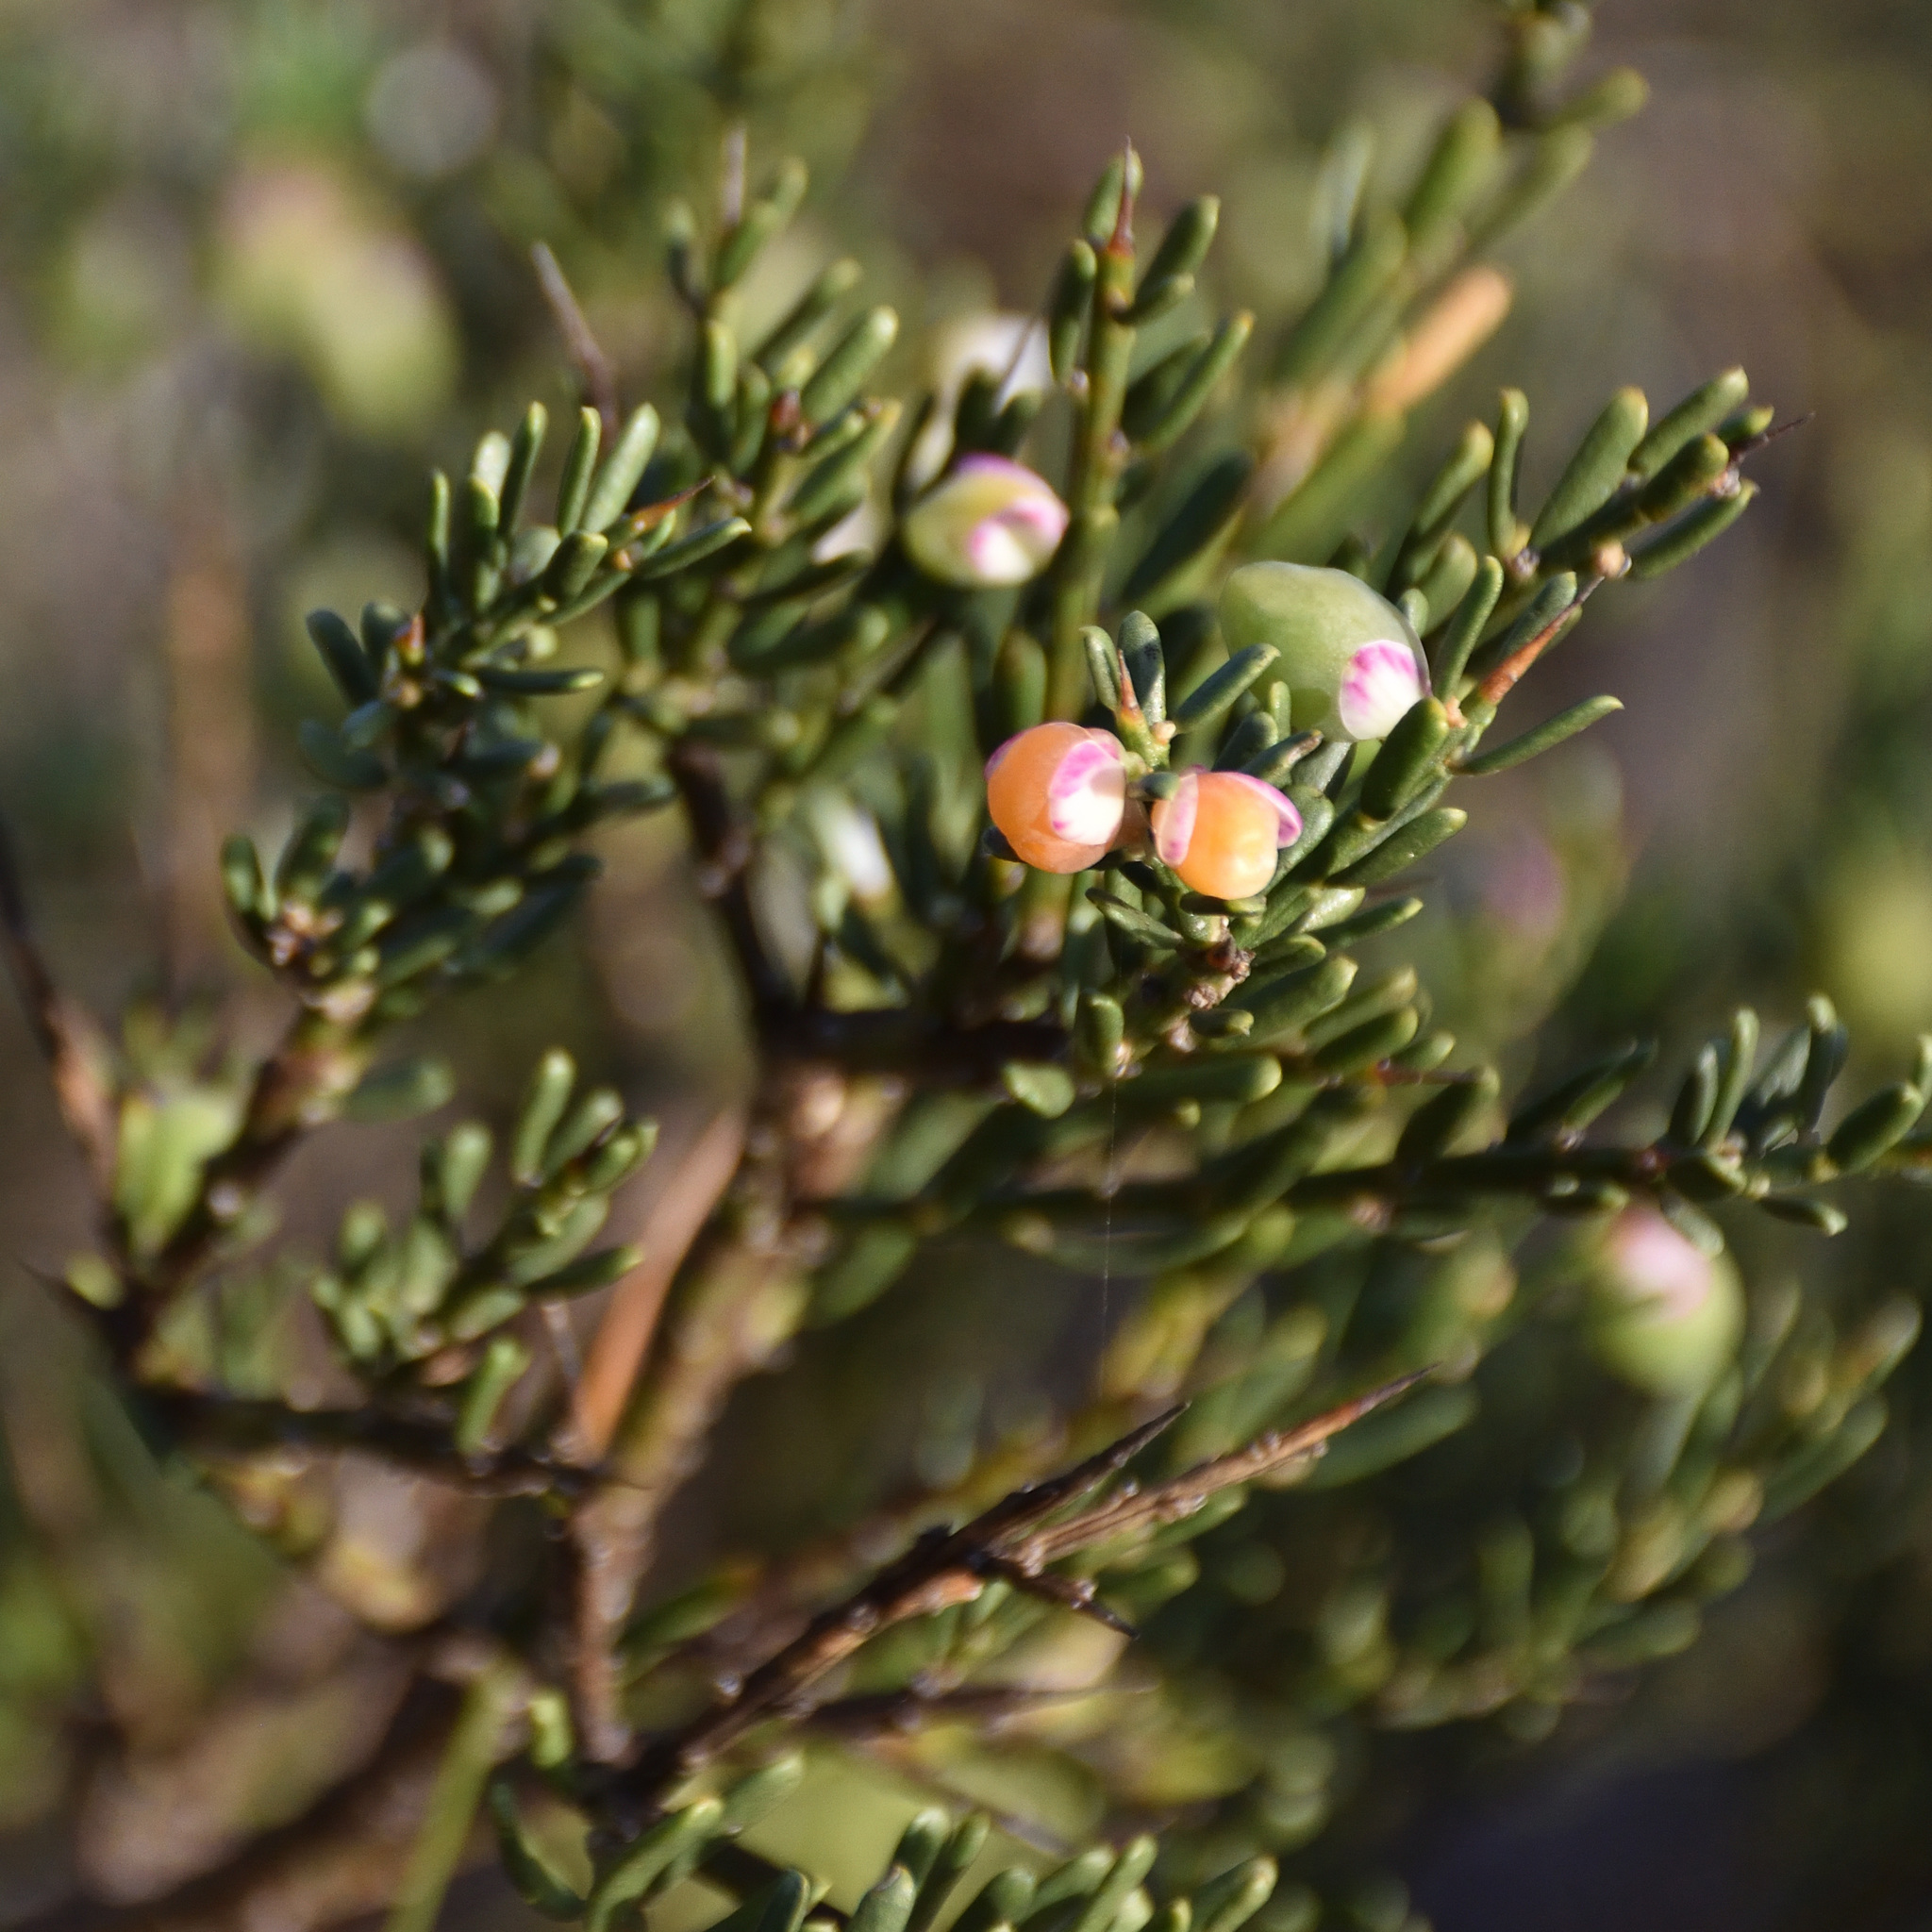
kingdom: Plantae
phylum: Tracheophyta
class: Magnoliopsida
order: Fabales
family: Polygalaceae
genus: Muraltia
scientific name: Muraltia spinosa
